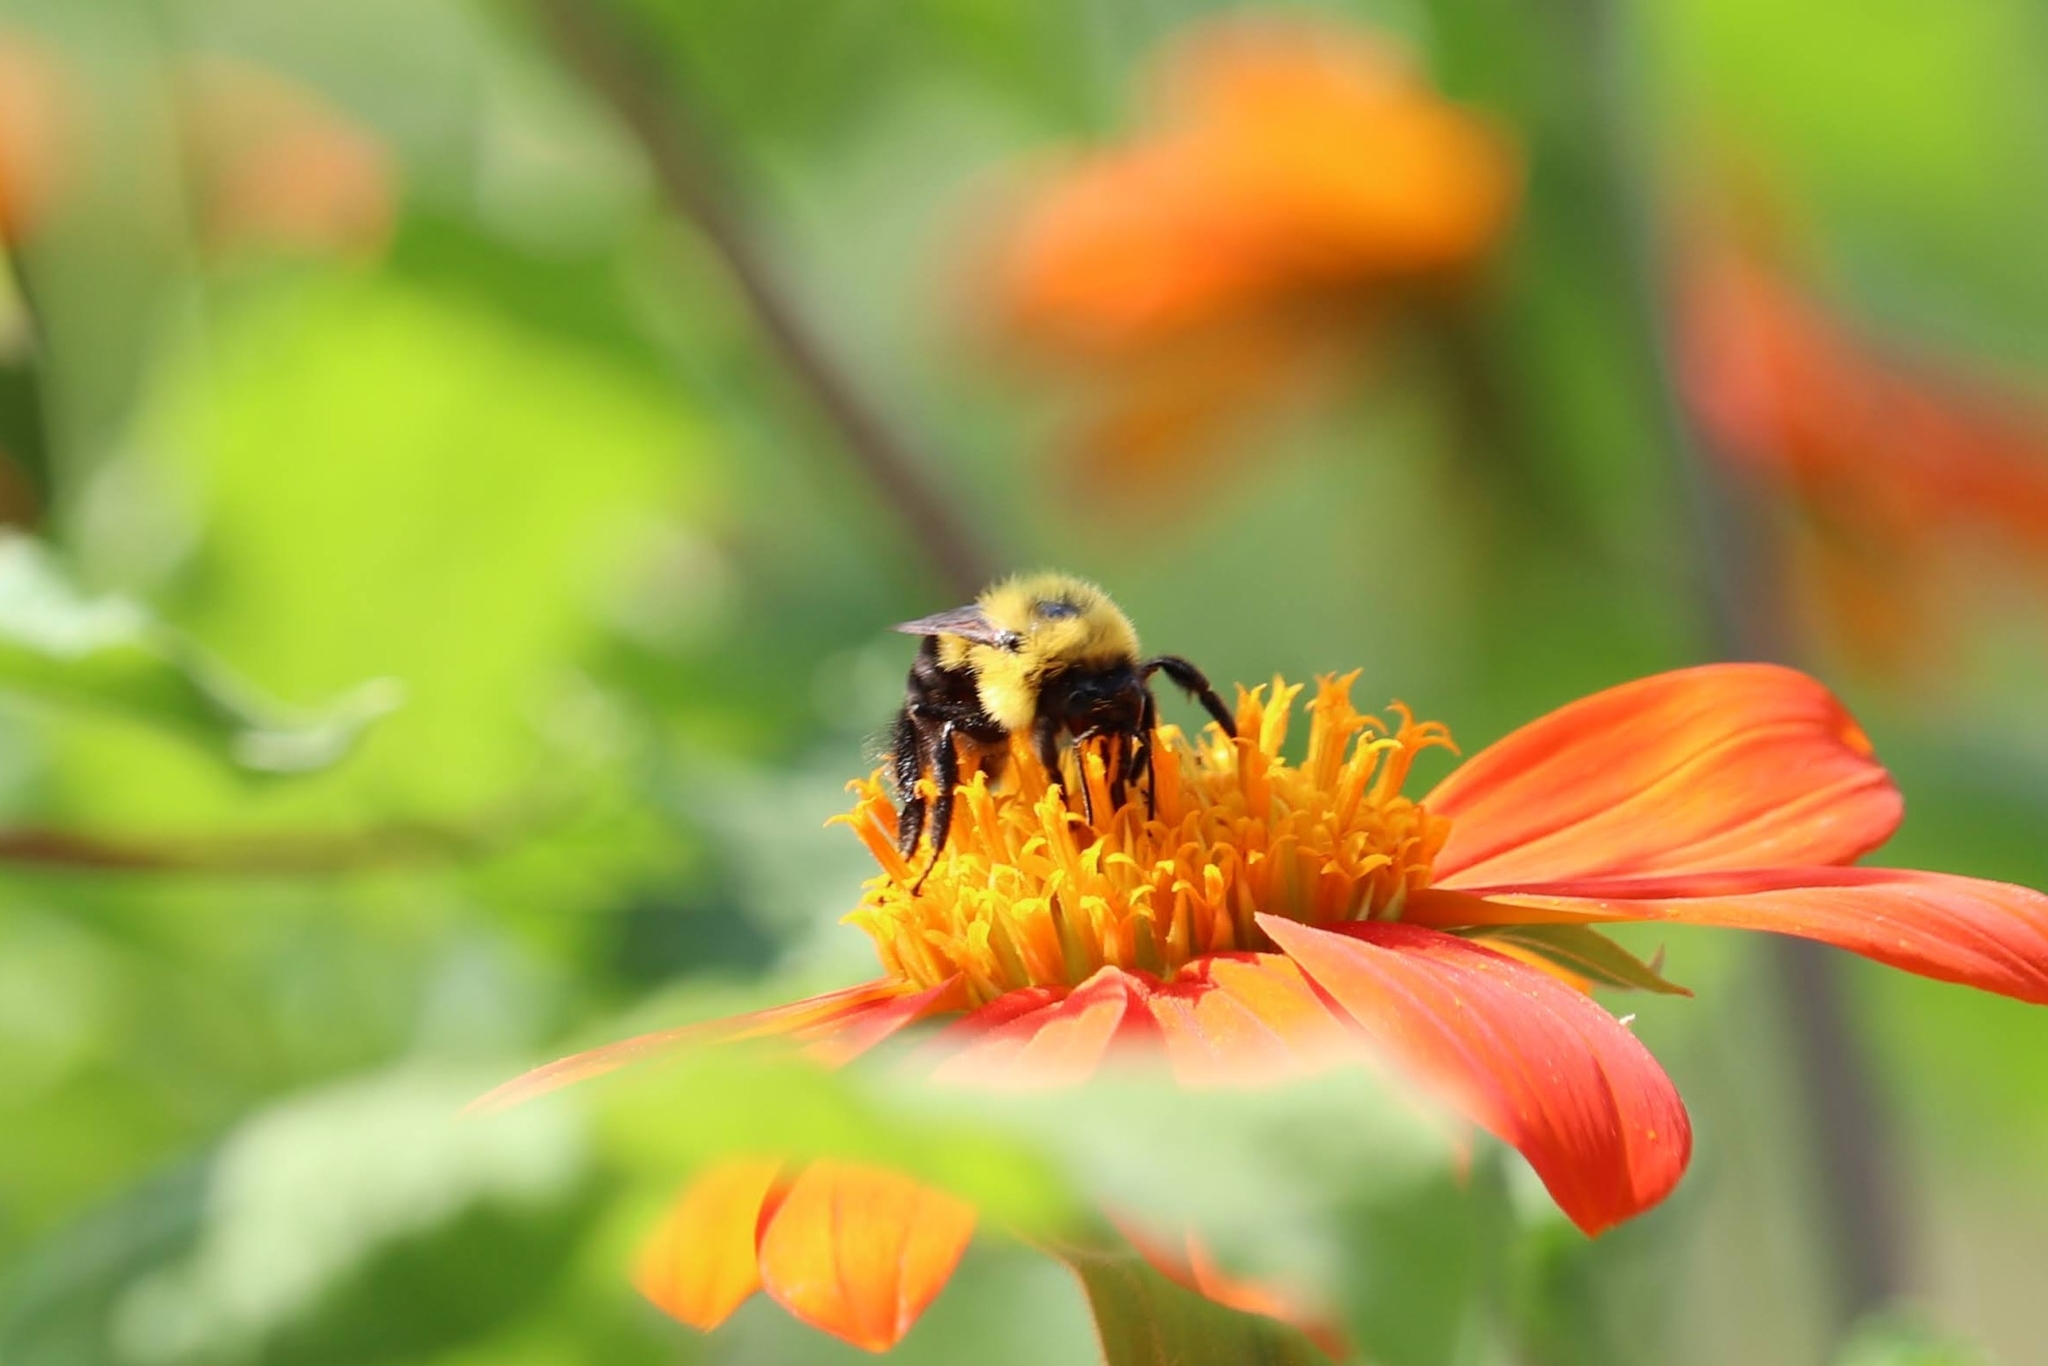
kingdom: Animalia
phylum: Arthropoda
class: Insecta
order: Hymenoptera
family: Apidae
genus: Bombus
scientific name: Bombus griseocollis
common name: Brown-belted bumble bee
